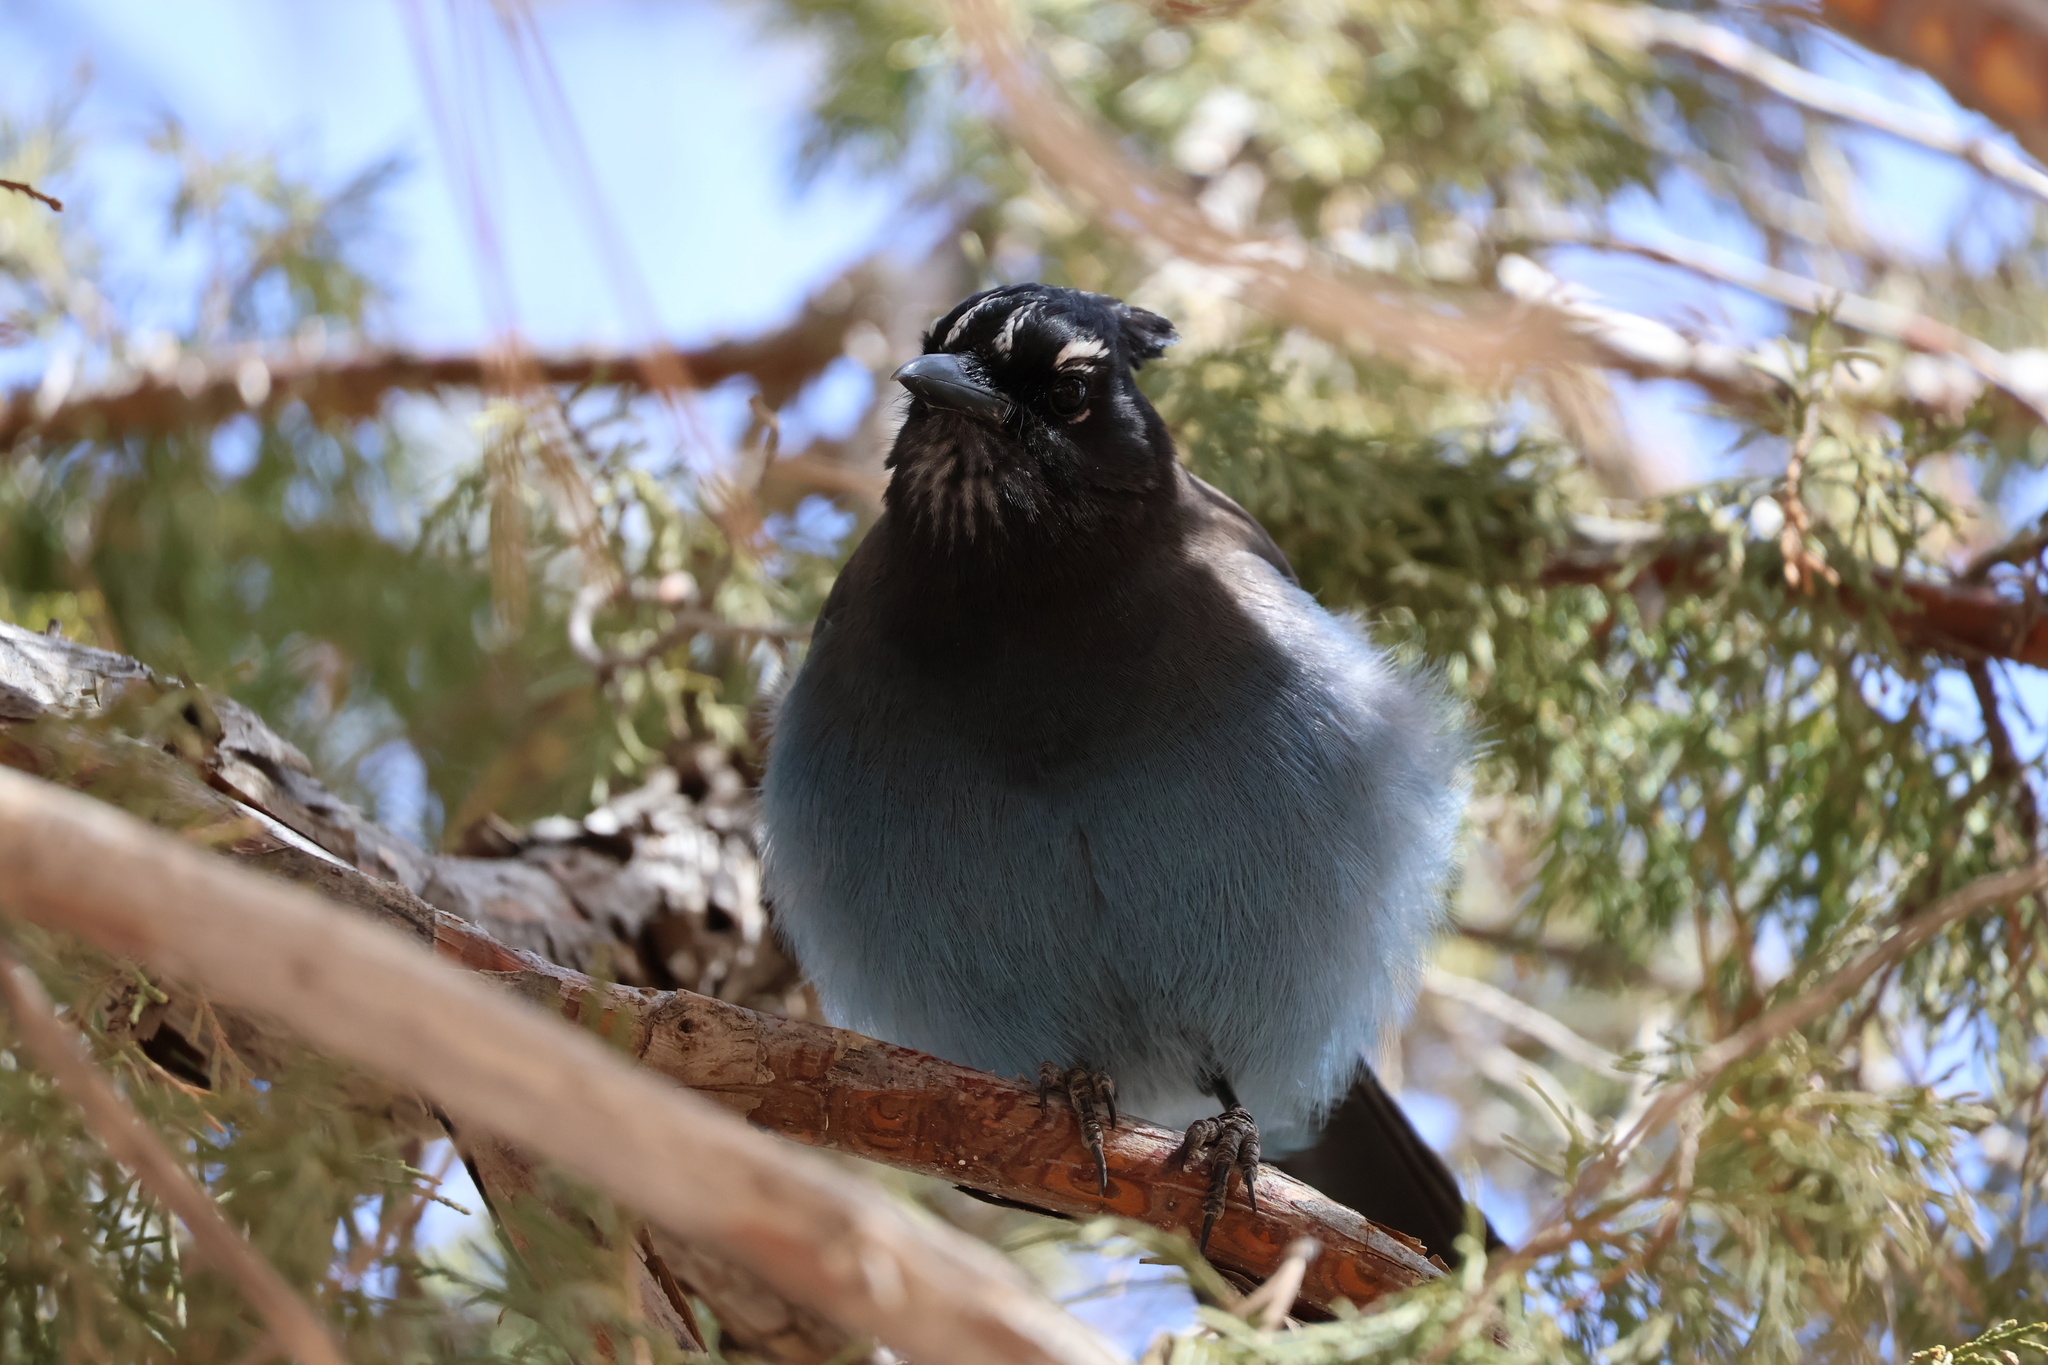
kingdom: Animalia
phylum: Chordata
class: Aves
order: Passeriformes
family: Corvidae
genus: Cyanocitta
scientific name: Cyanocitta stelleri
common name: Steller's jay
